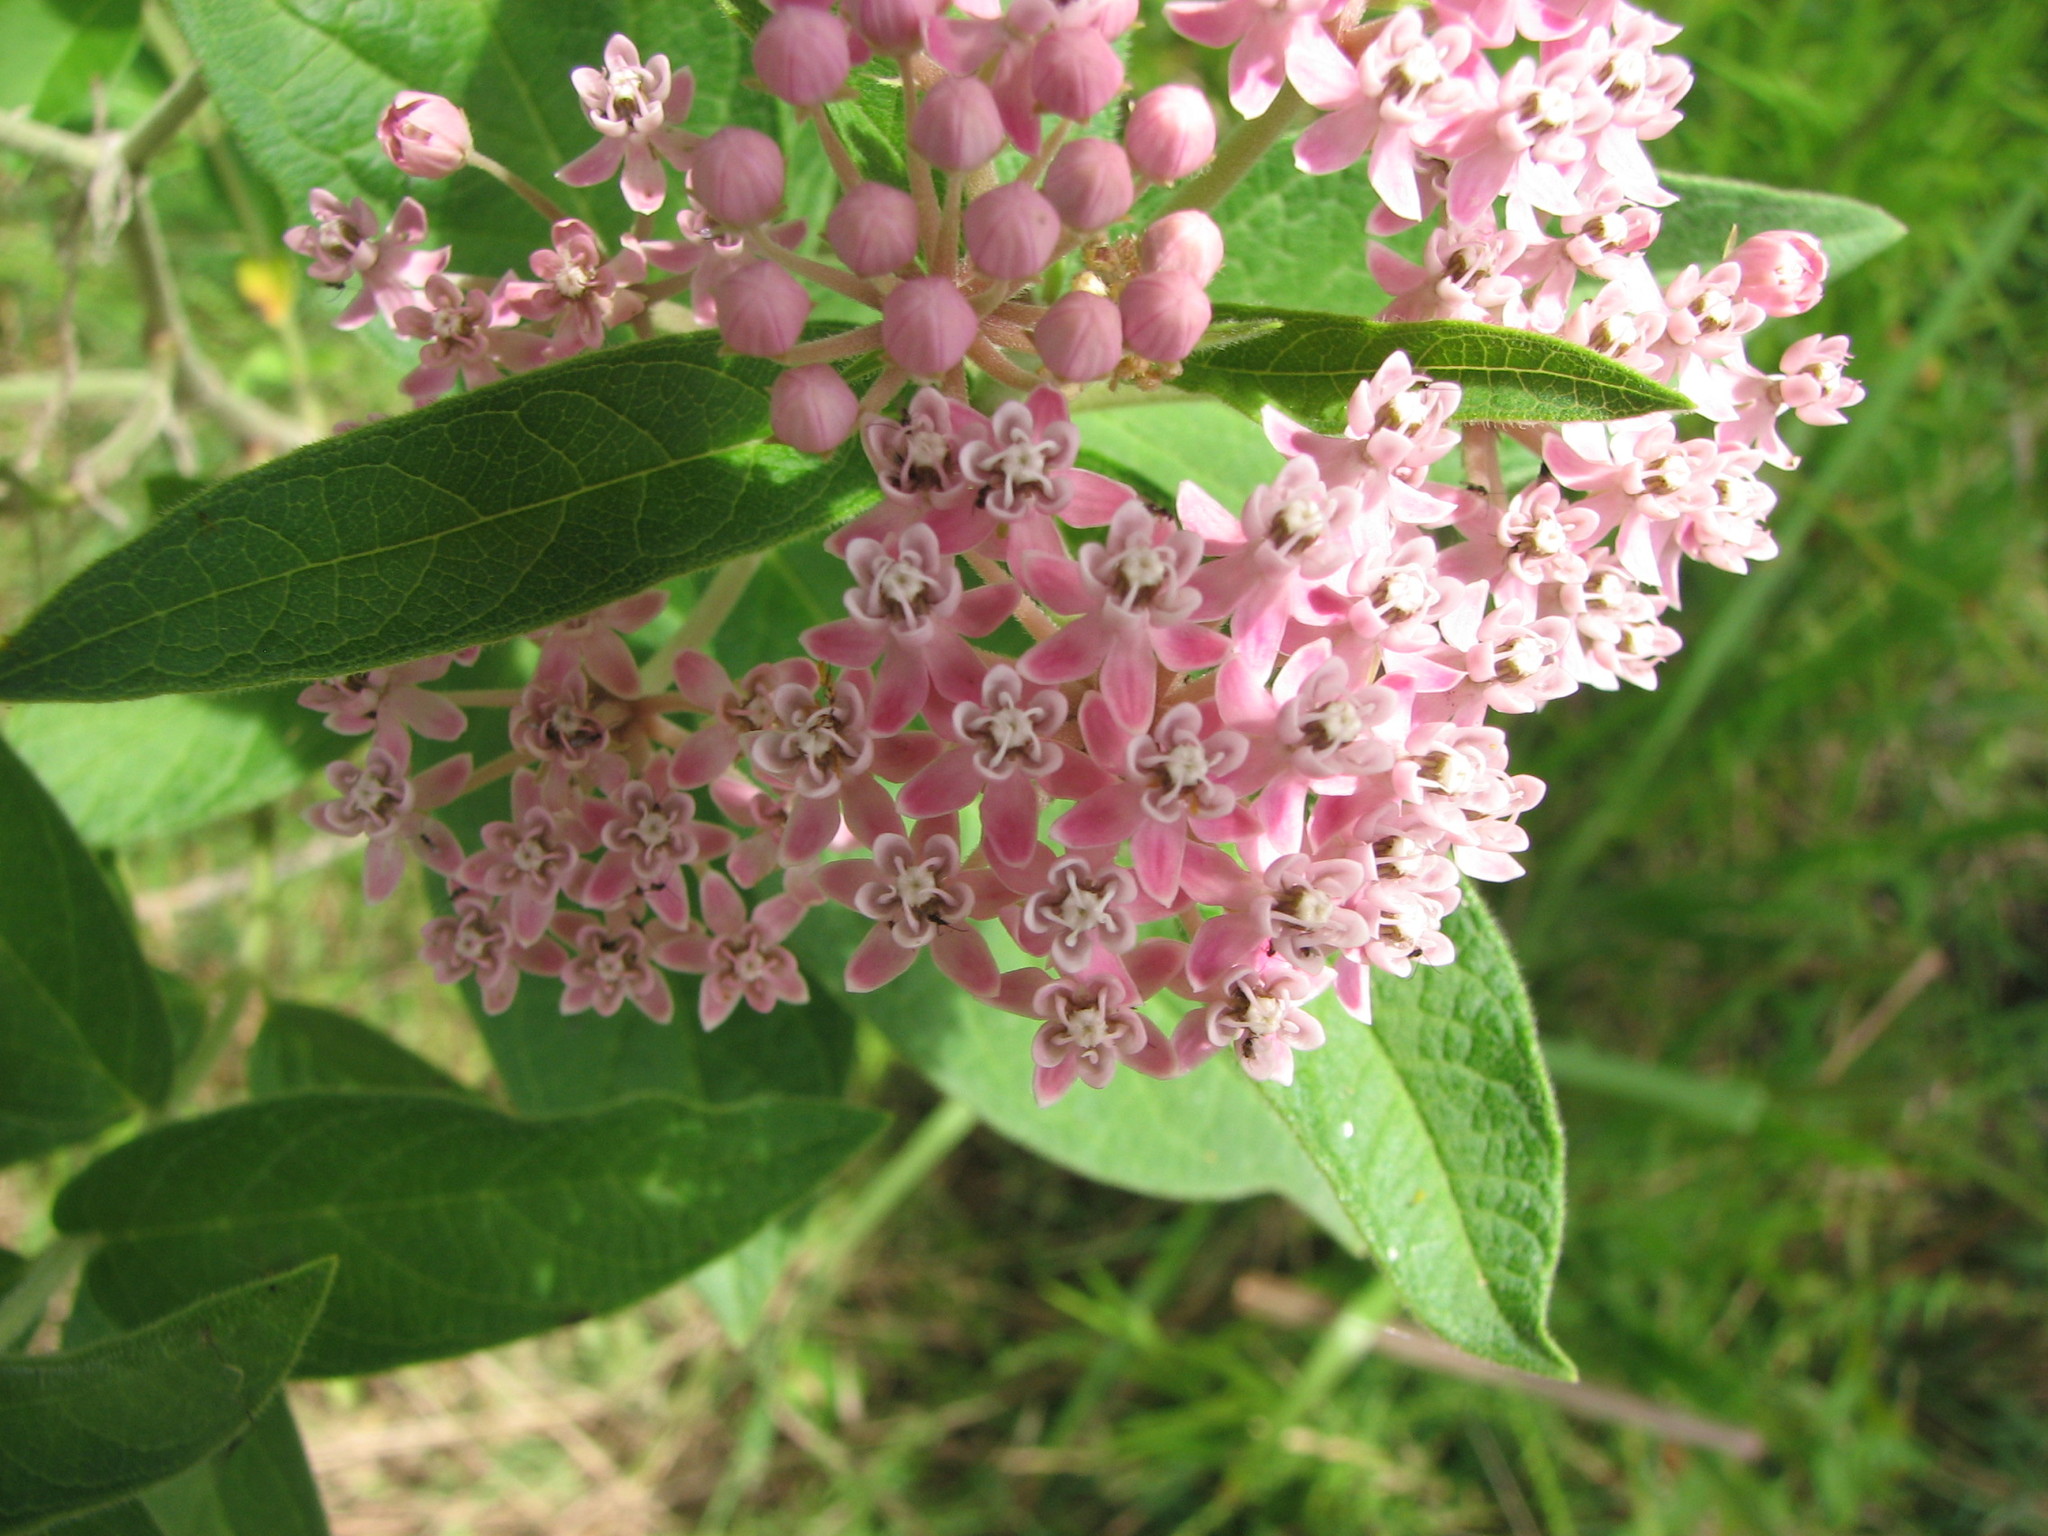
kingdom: Plantae
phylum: Tracheophyta
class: Magnoliopsida
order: Gentianales
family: Apocynaceae
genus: Asclepias
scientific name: Asclepias incarnata
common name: Swamp milkweed
